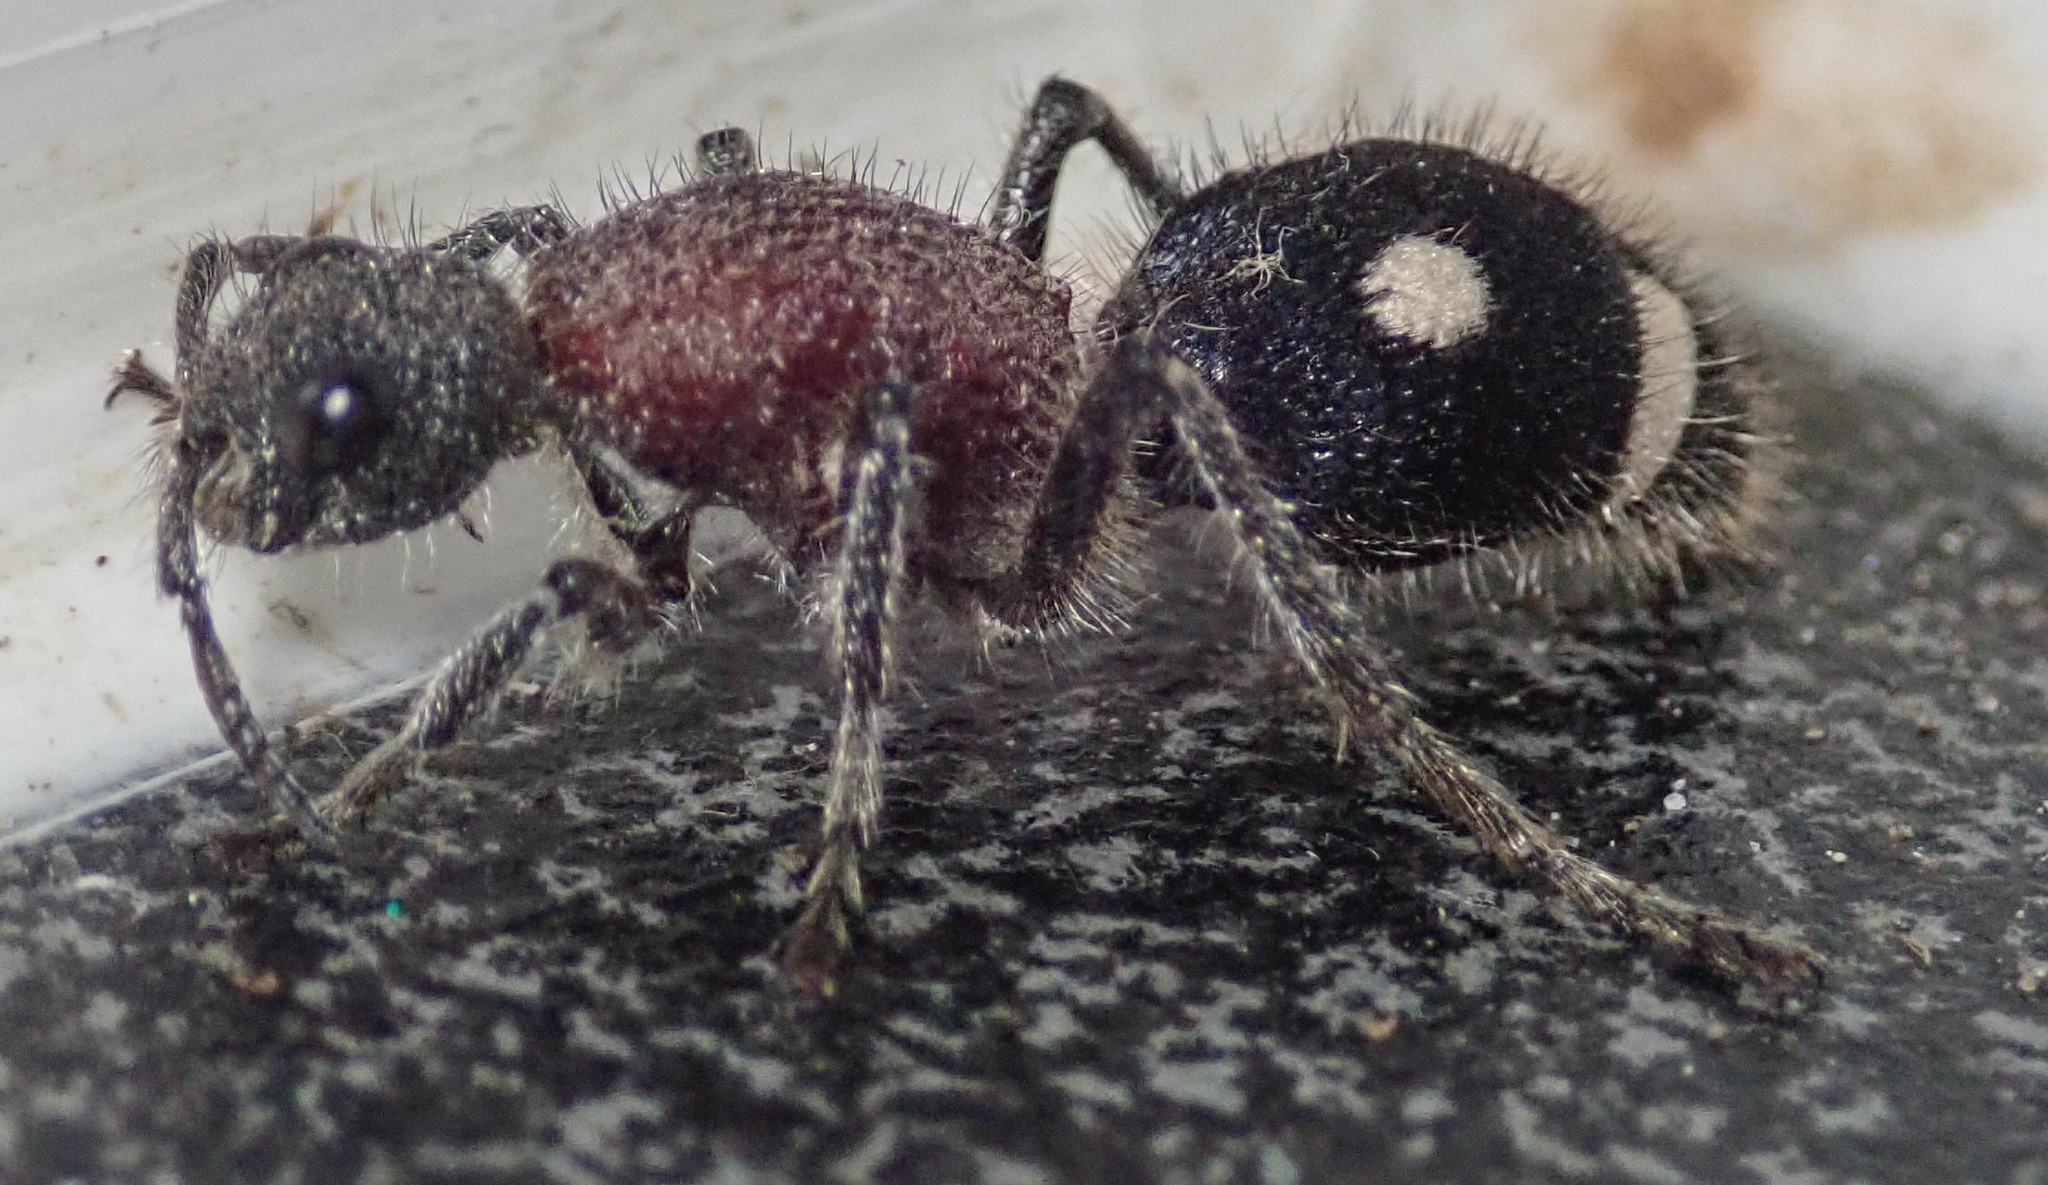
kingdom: Animalia
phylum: Arthropoda
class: Insecta
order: Hymenoptera
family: Mutillidae
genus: Dolichomutilla
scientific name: Dolichomutilla
